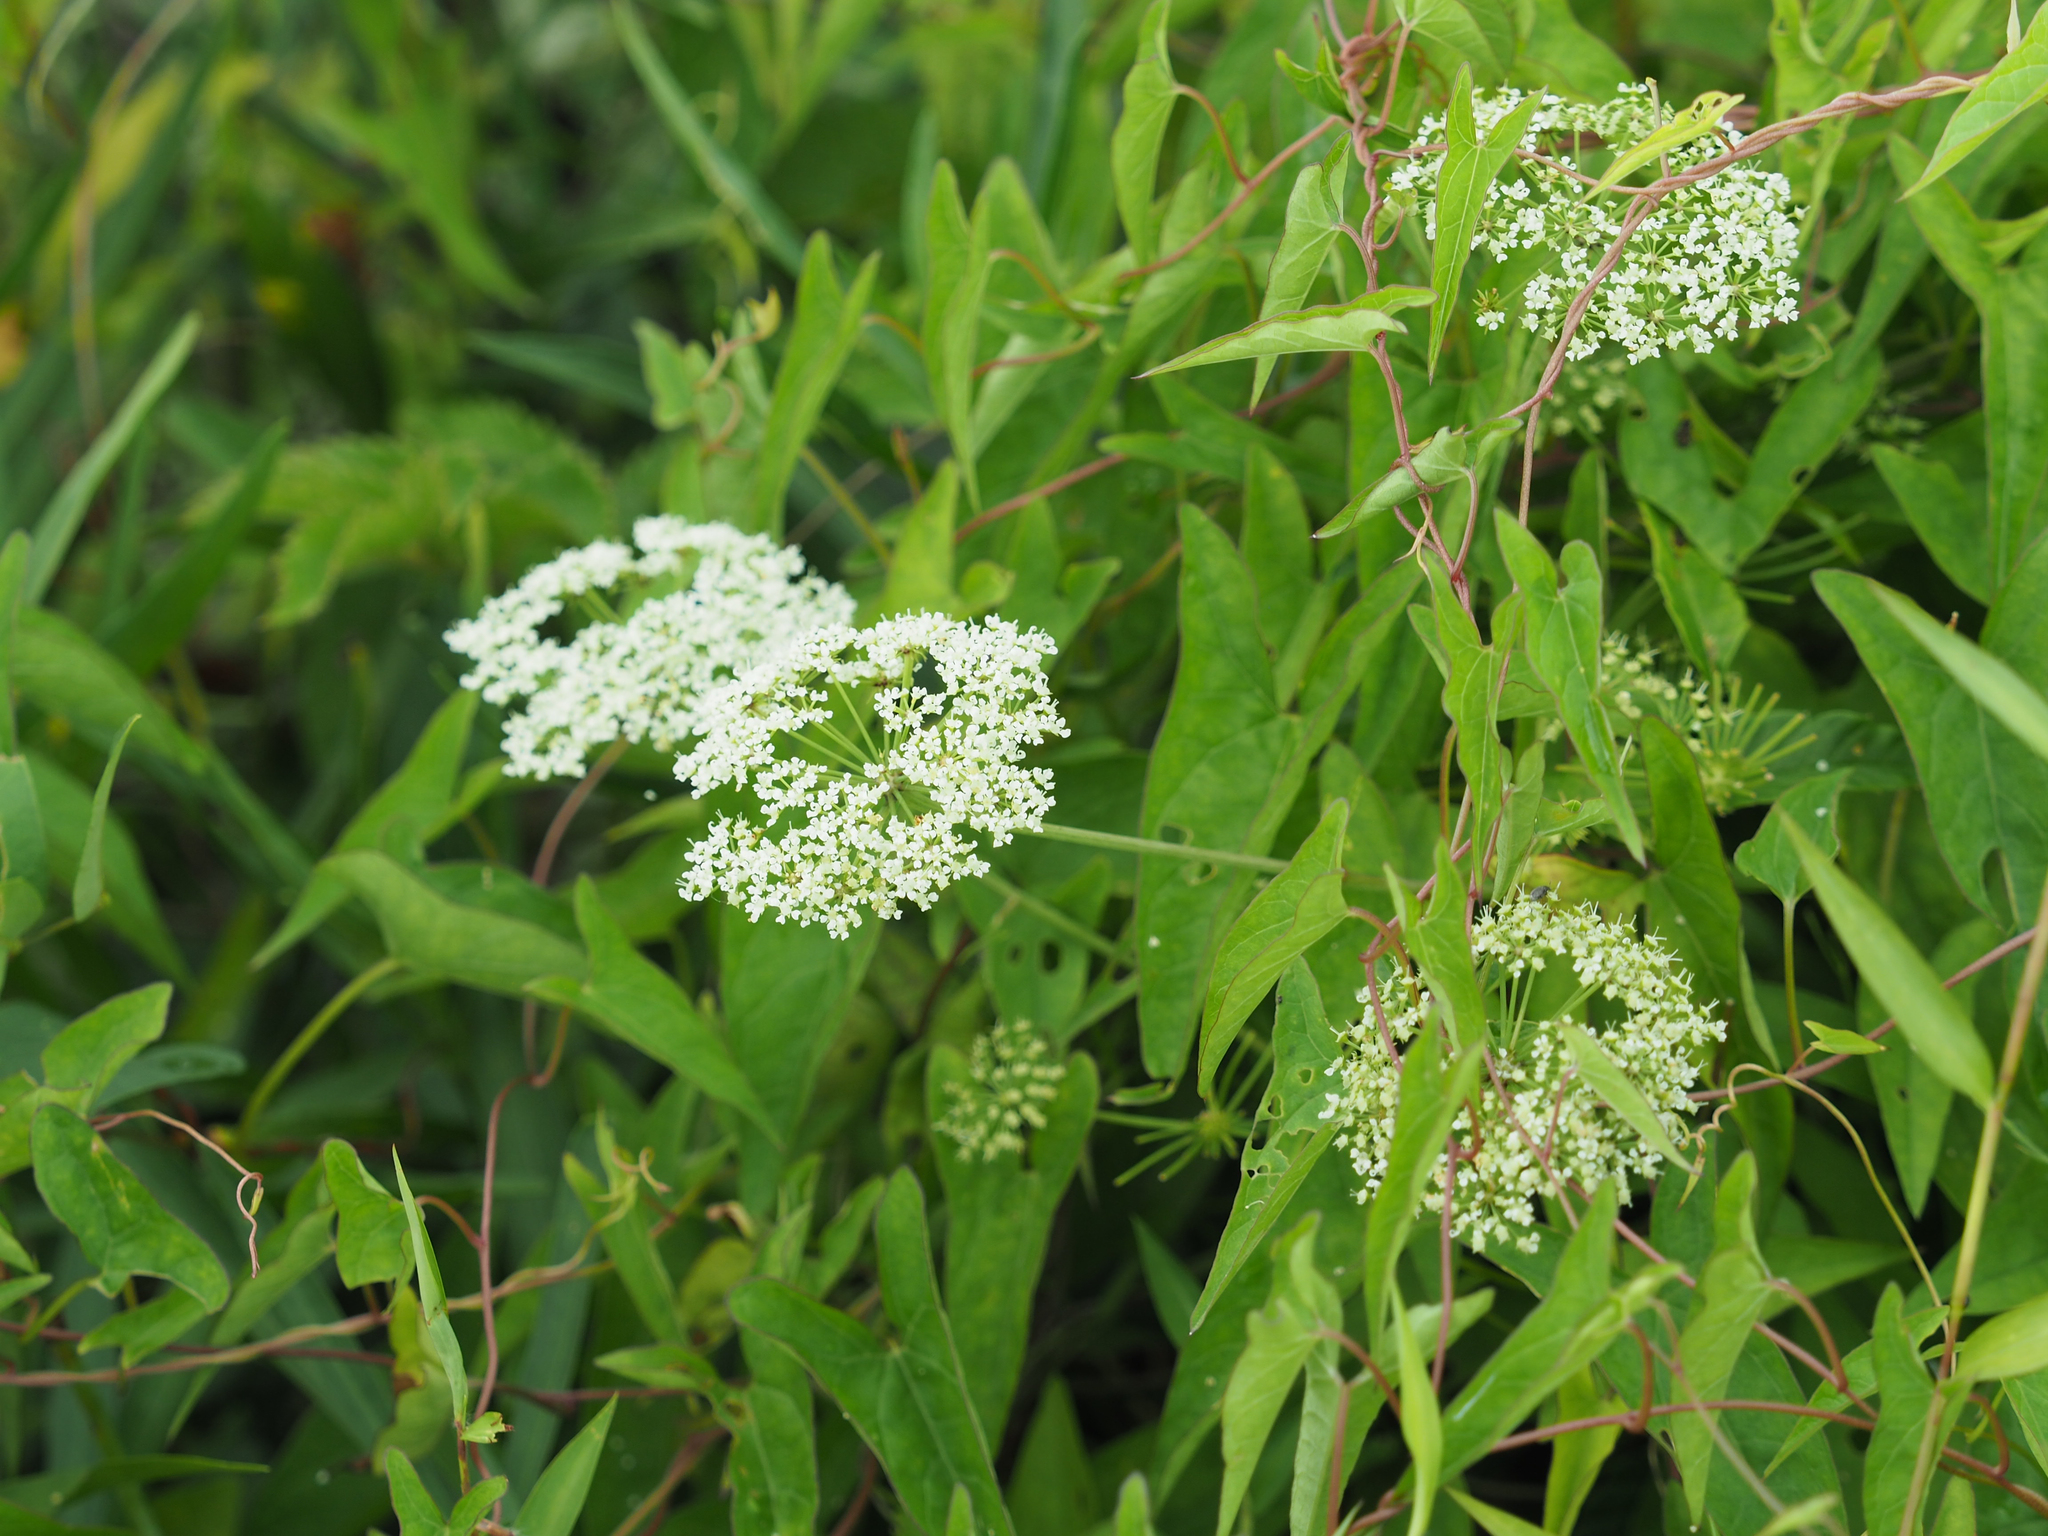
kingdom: Plantae
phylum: Tracheophyta
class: Magnoliopsida
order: Apiales
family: Apiaceae
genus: Cicuta
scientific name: Cicuta maculata
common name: Spotted cowbane
